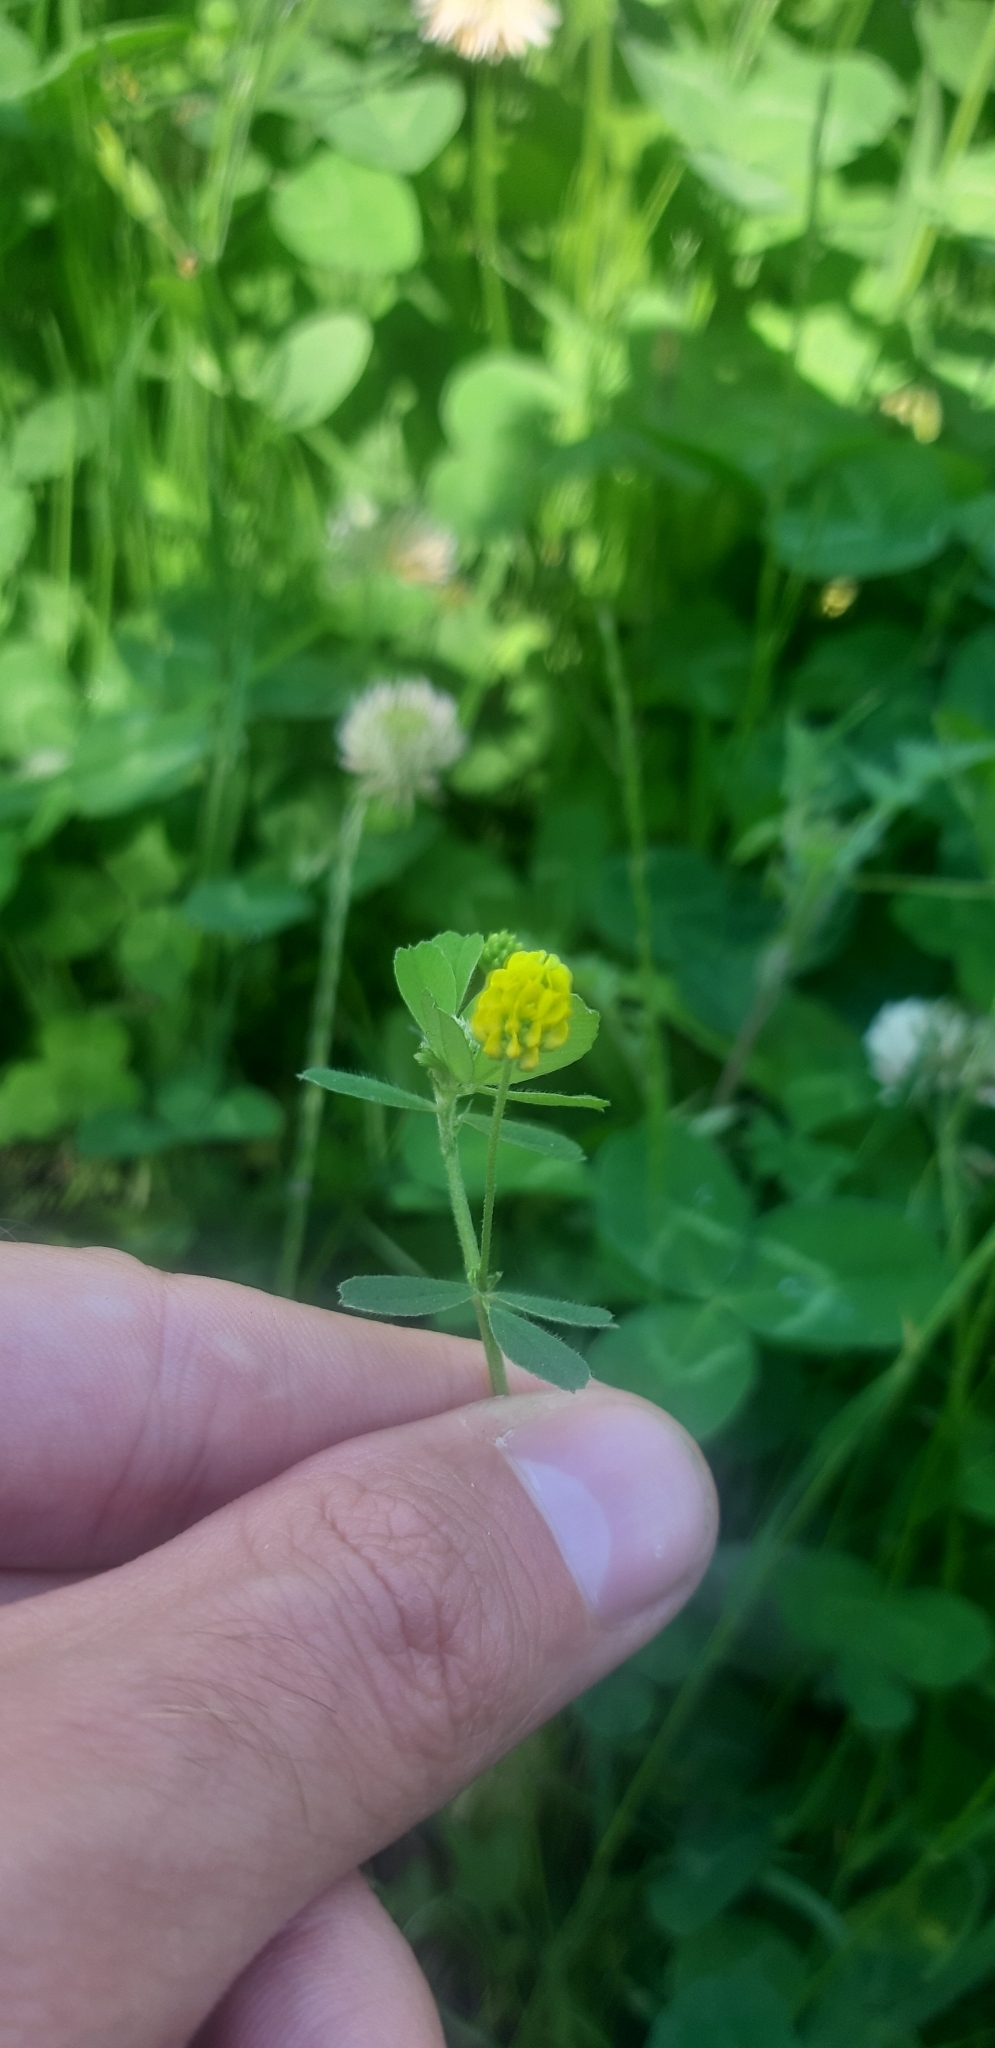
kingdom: Plantae
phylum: Tracheophyta
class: Magnoliopsida
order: Fabales
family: Fabaceae
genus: Medicago
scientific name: Medicago lupulina
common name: Black medick
